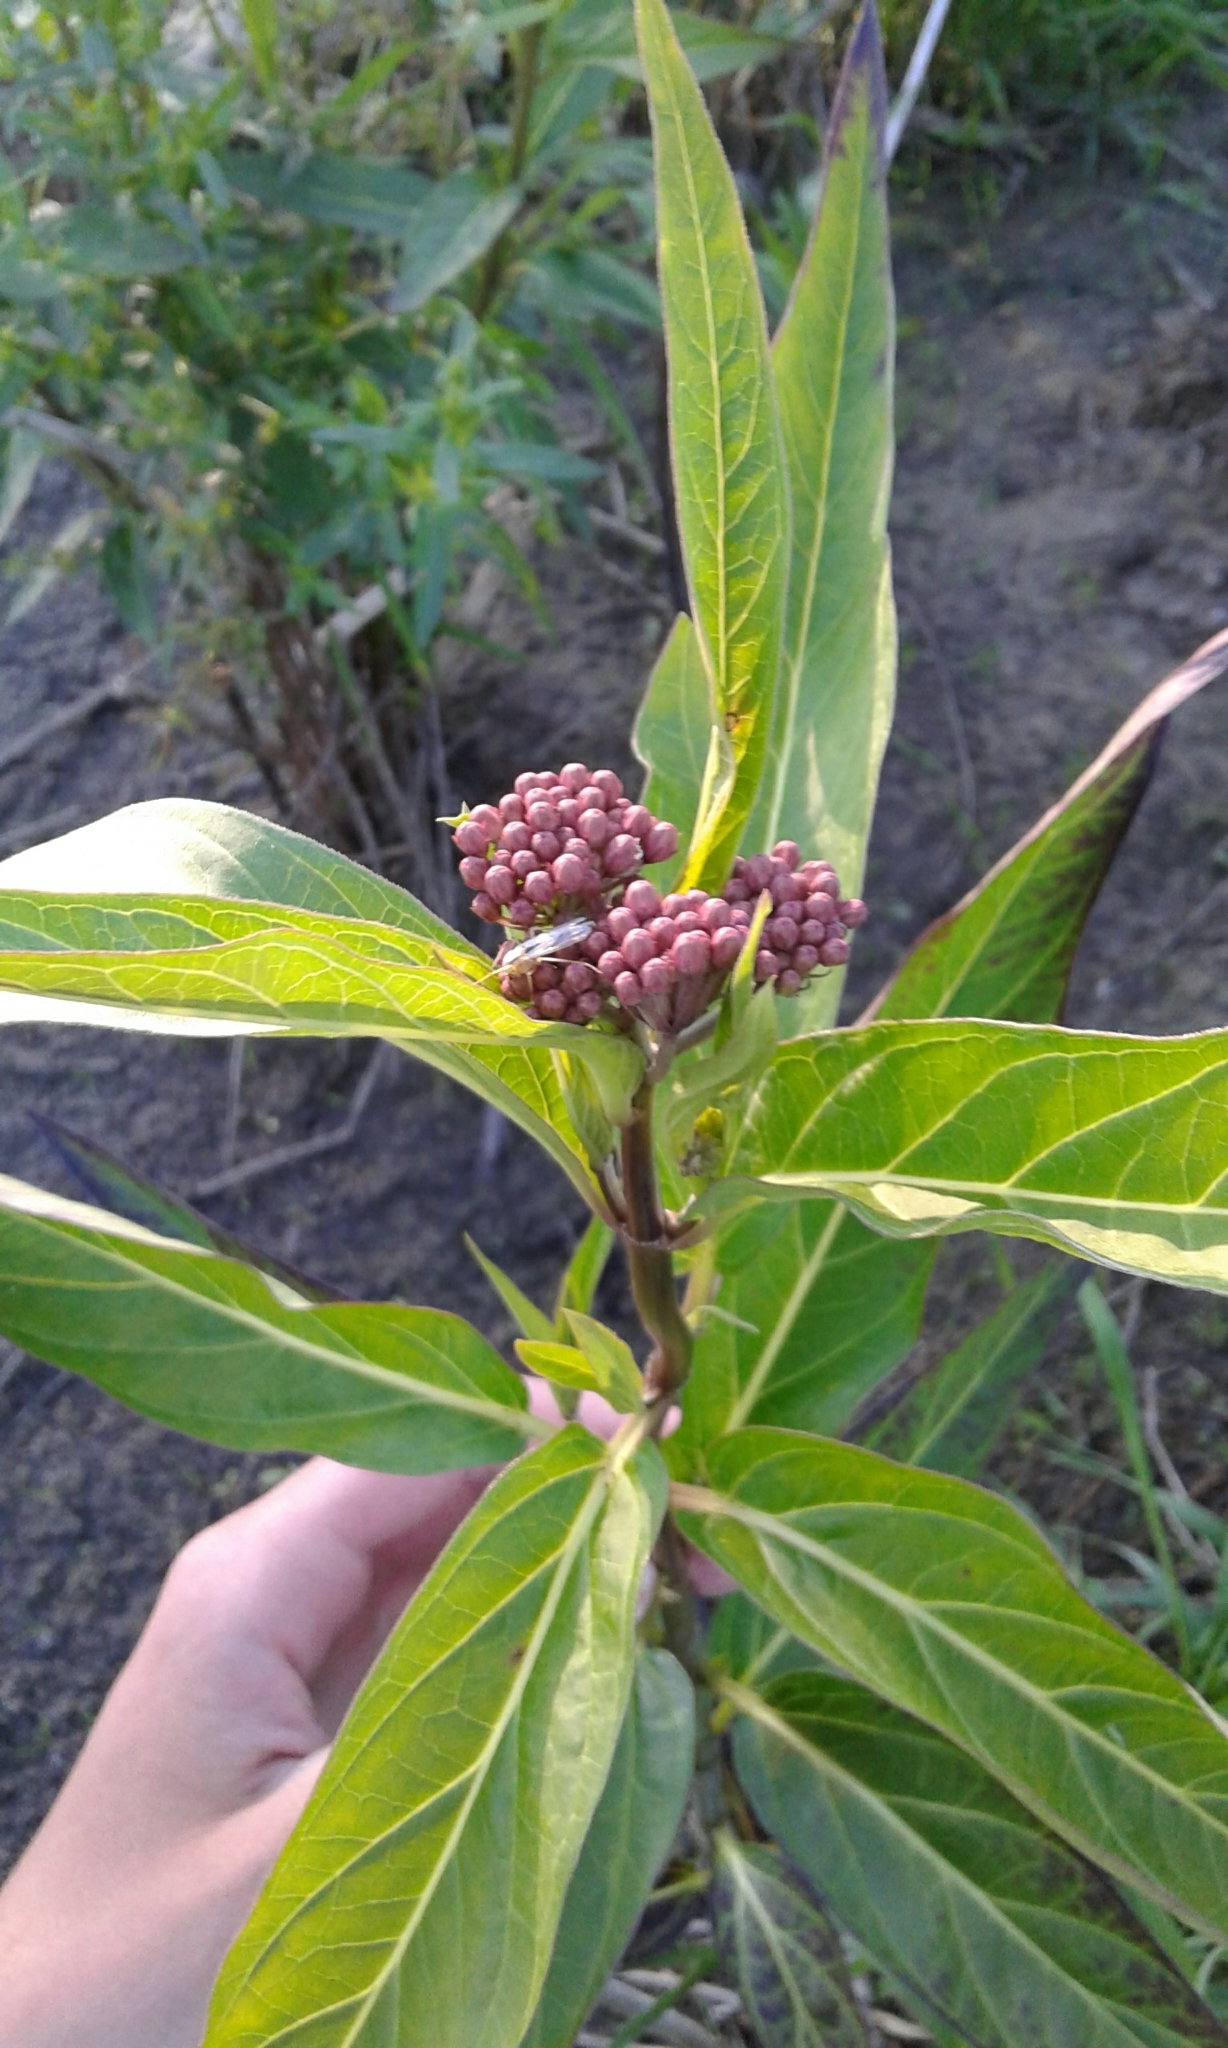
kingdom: Plantae
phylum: Tracheophyta
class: Magnoliopsida
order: Gentianales
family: Apocynaceae
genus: Asclepias
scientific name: Asclepias incarnata
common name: Swamp milkweed
